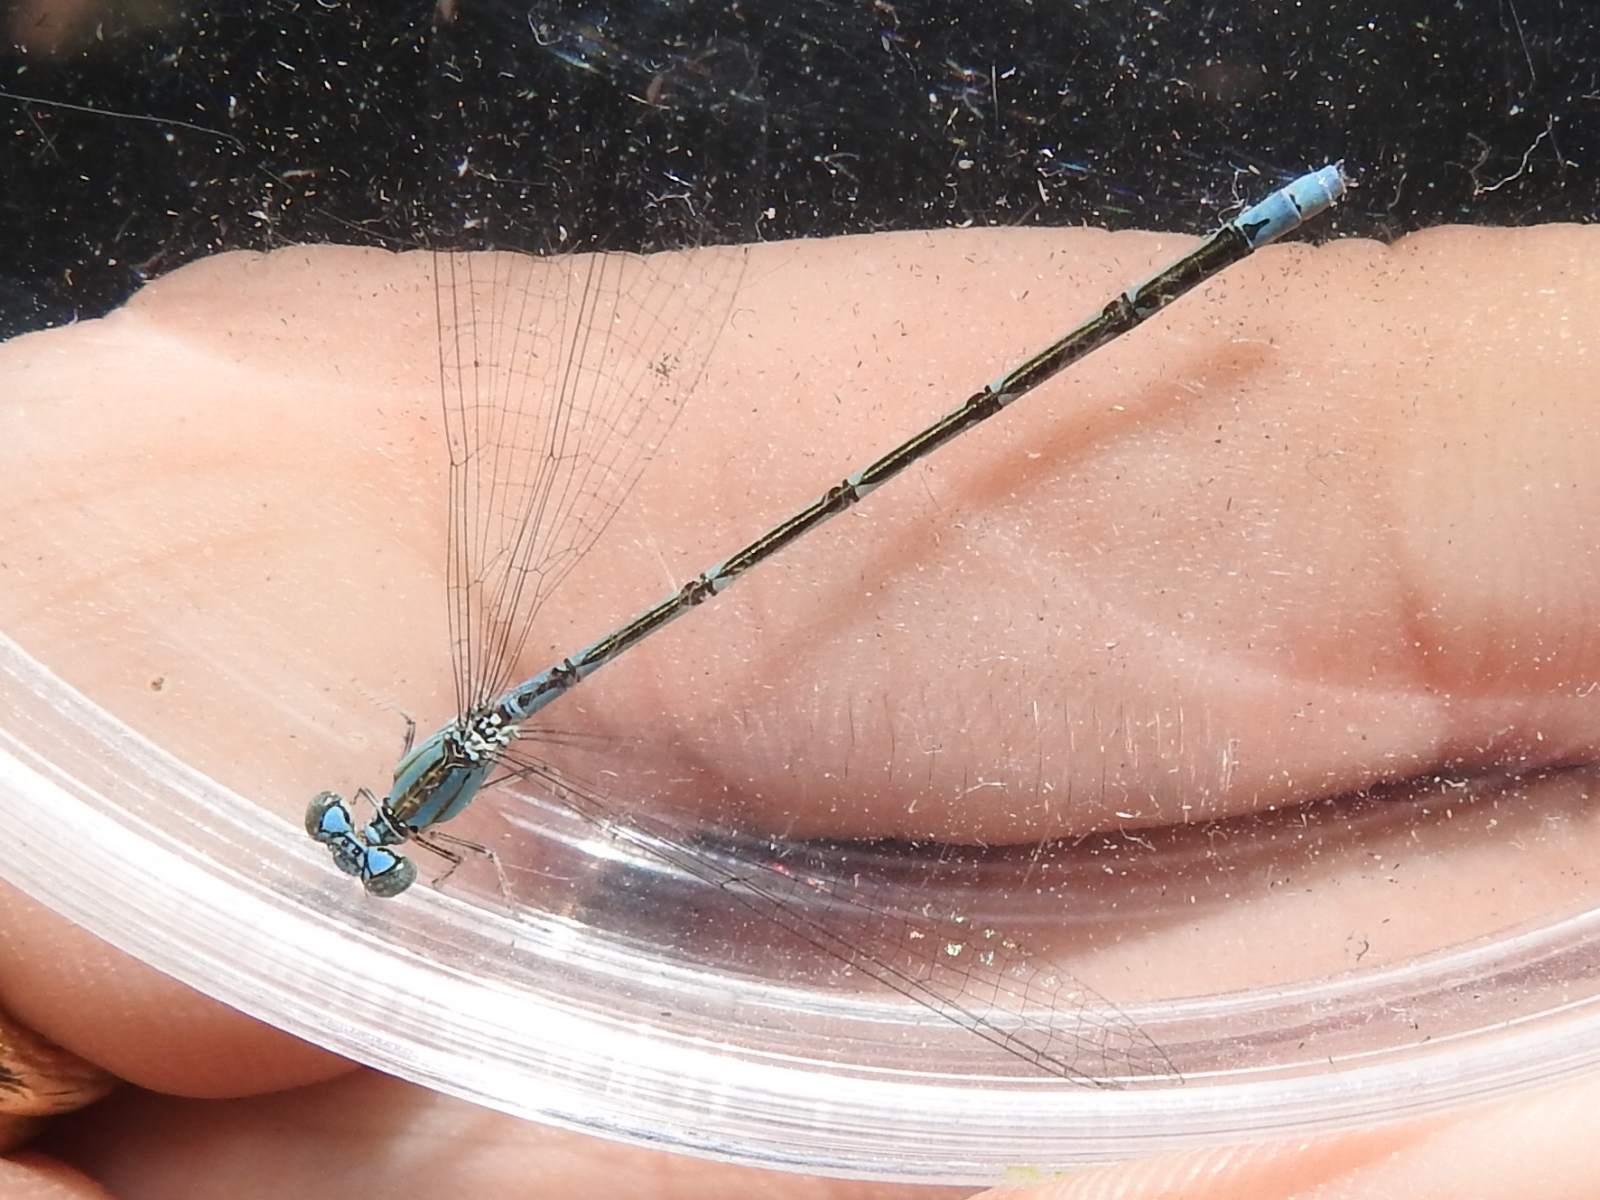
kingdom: Animalia
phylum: Arthropoda
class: Insecta
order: Odonata
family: Coenagrionidae
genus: Enallagma
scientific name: Enallagma traviatum
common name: Slender bluet
